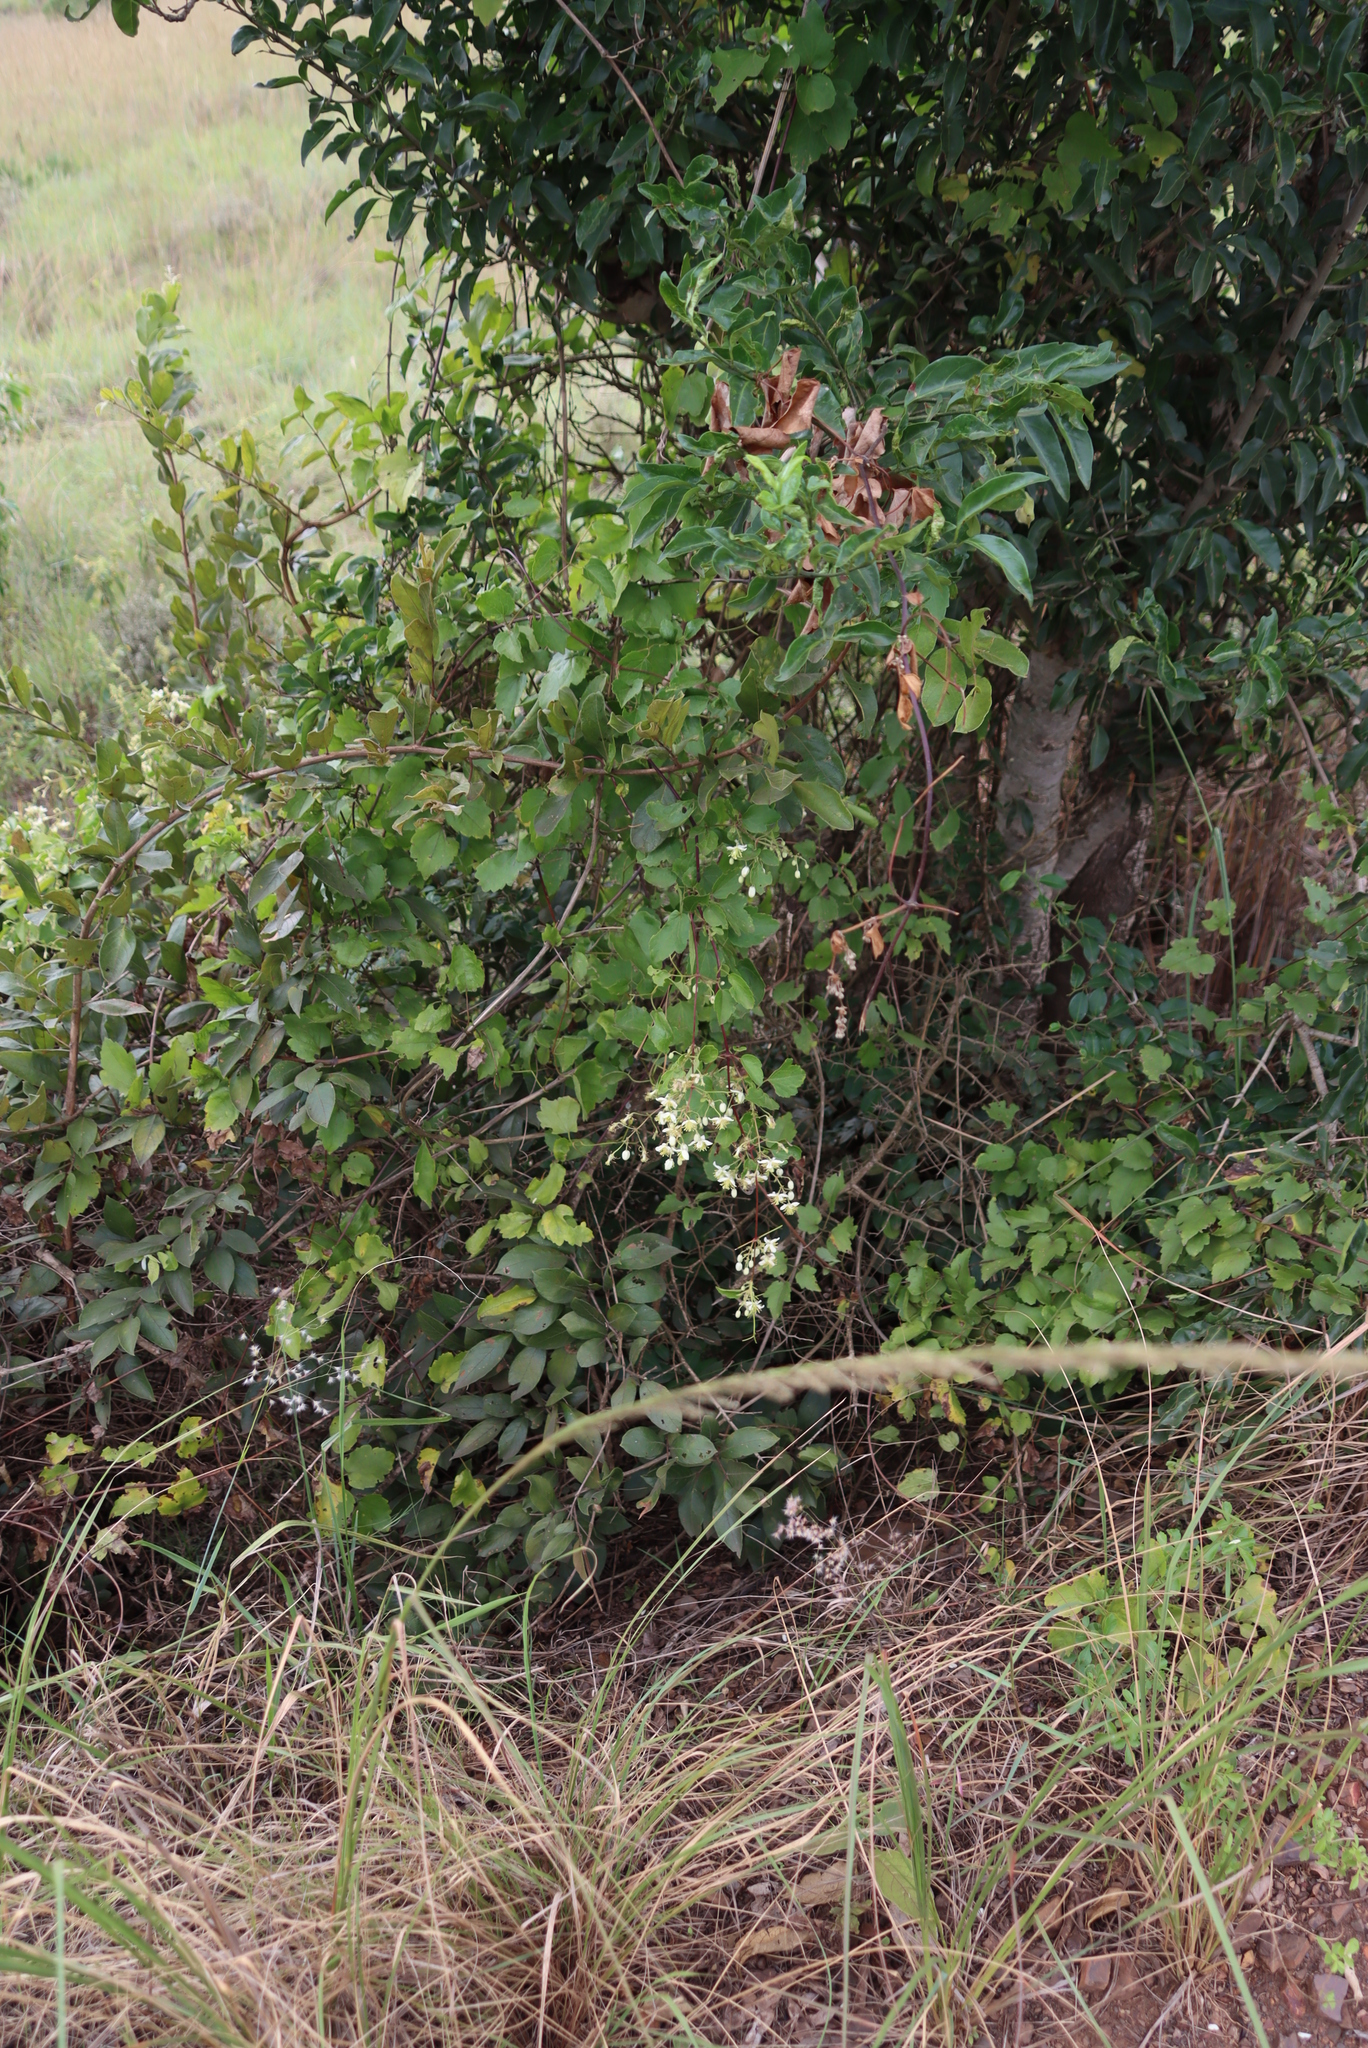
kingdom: Plantae
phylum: Tracheophyta
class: Magnoliopsida
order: Ranunculales
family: Ranunculaceae
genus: Clematis
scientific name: Clematis brachiata
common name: Traveler's-joy
